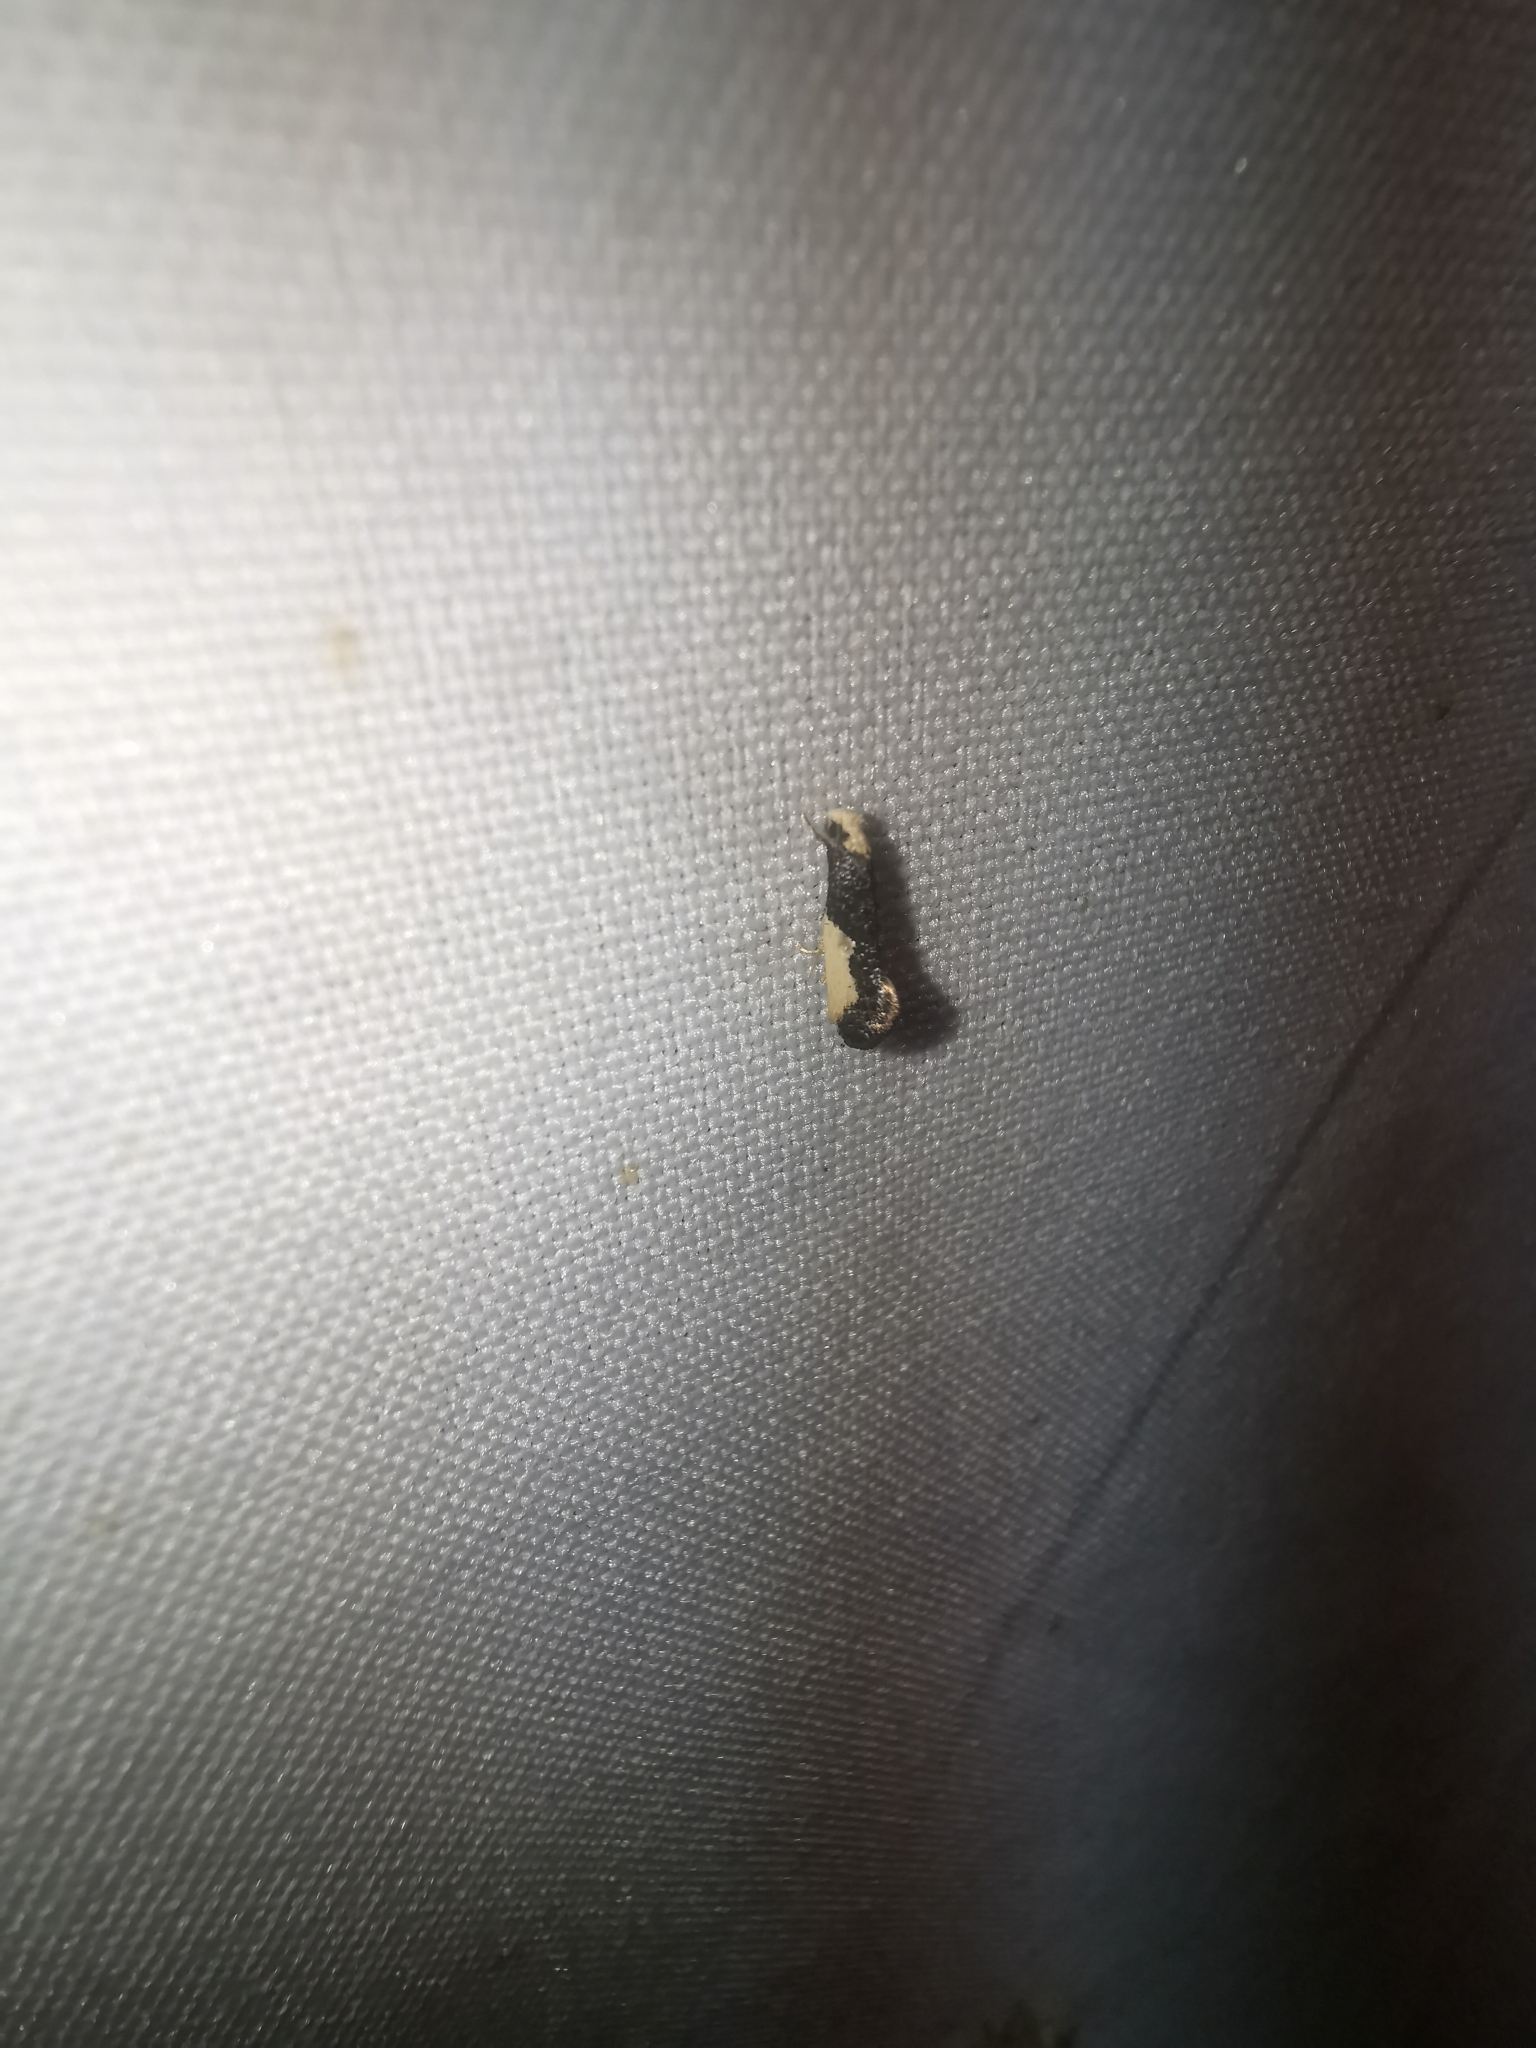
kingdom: Animalia
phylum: Arthropoda
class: Insecta
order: Lepidoptera
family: Tineidae
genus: Monopis
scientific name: Monopis monachella
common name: Moth
